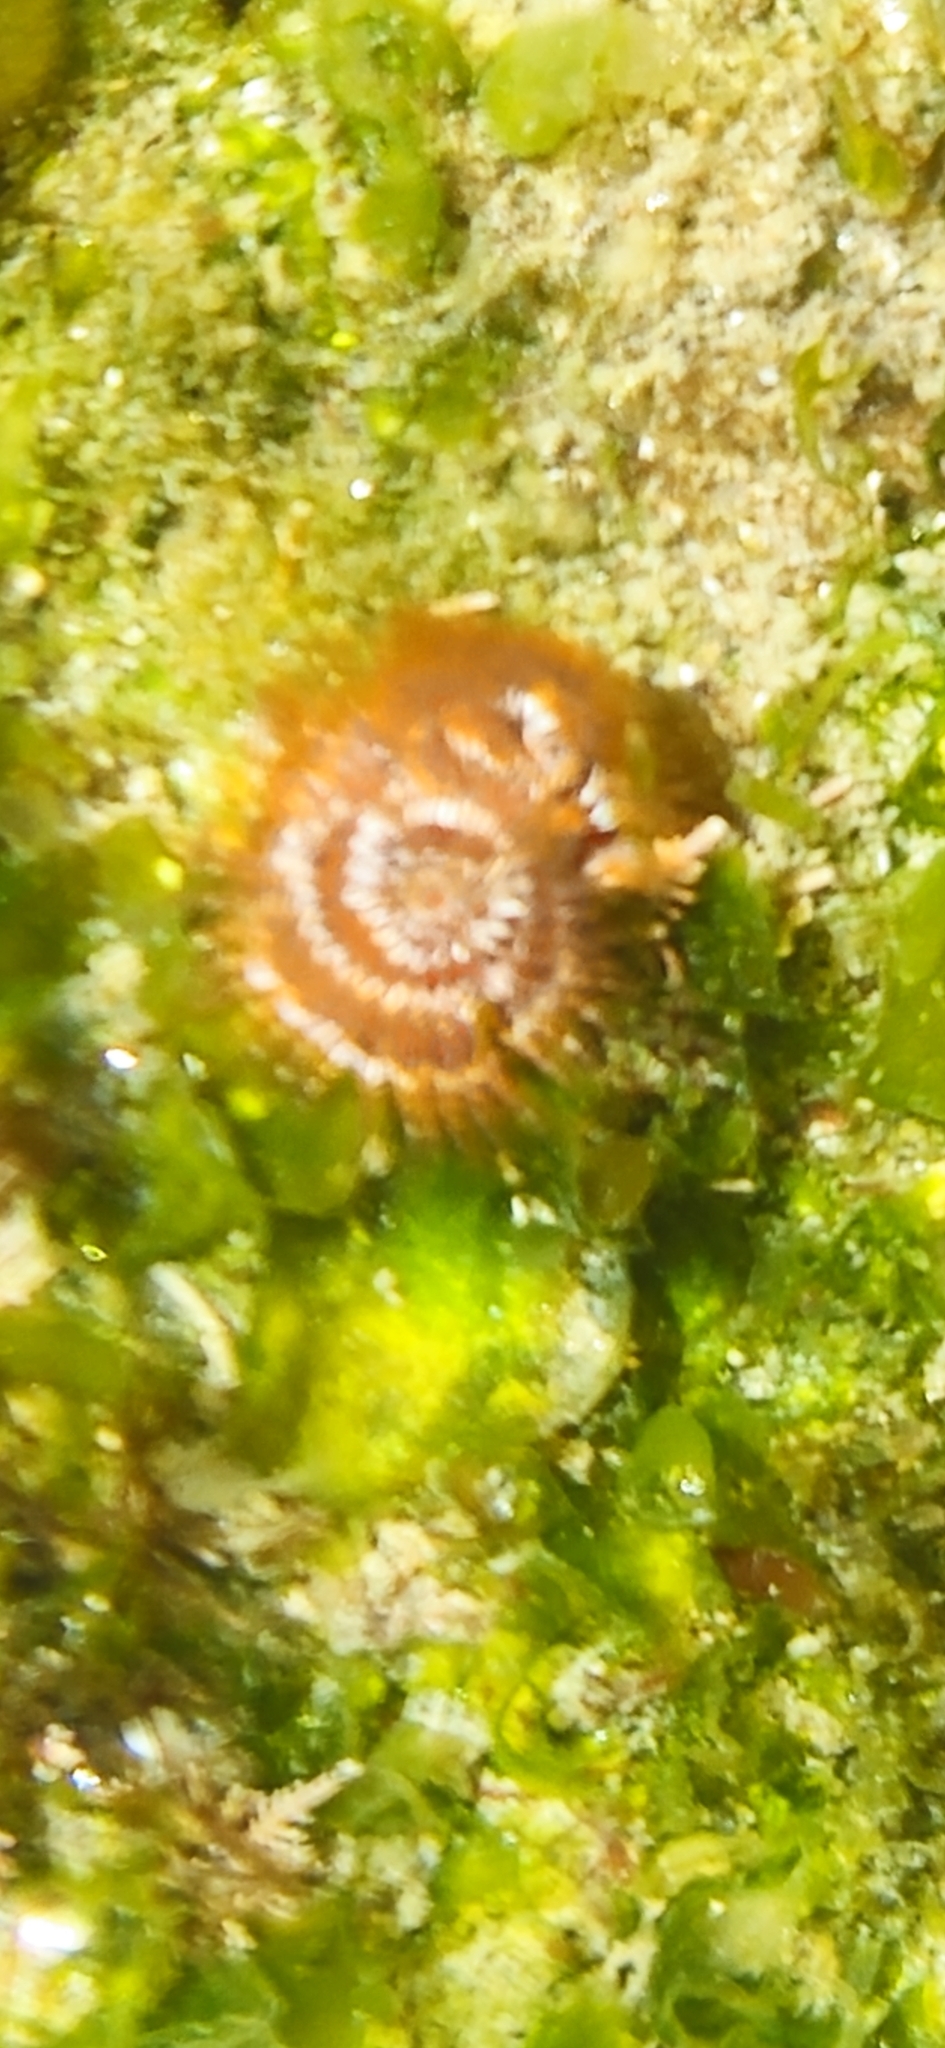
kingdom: Animalia
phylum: Annelida
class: Polychaeta
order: Sabellida
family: Serpulidae
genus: Spirobranchus
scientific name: Spirobranchus spinosus
